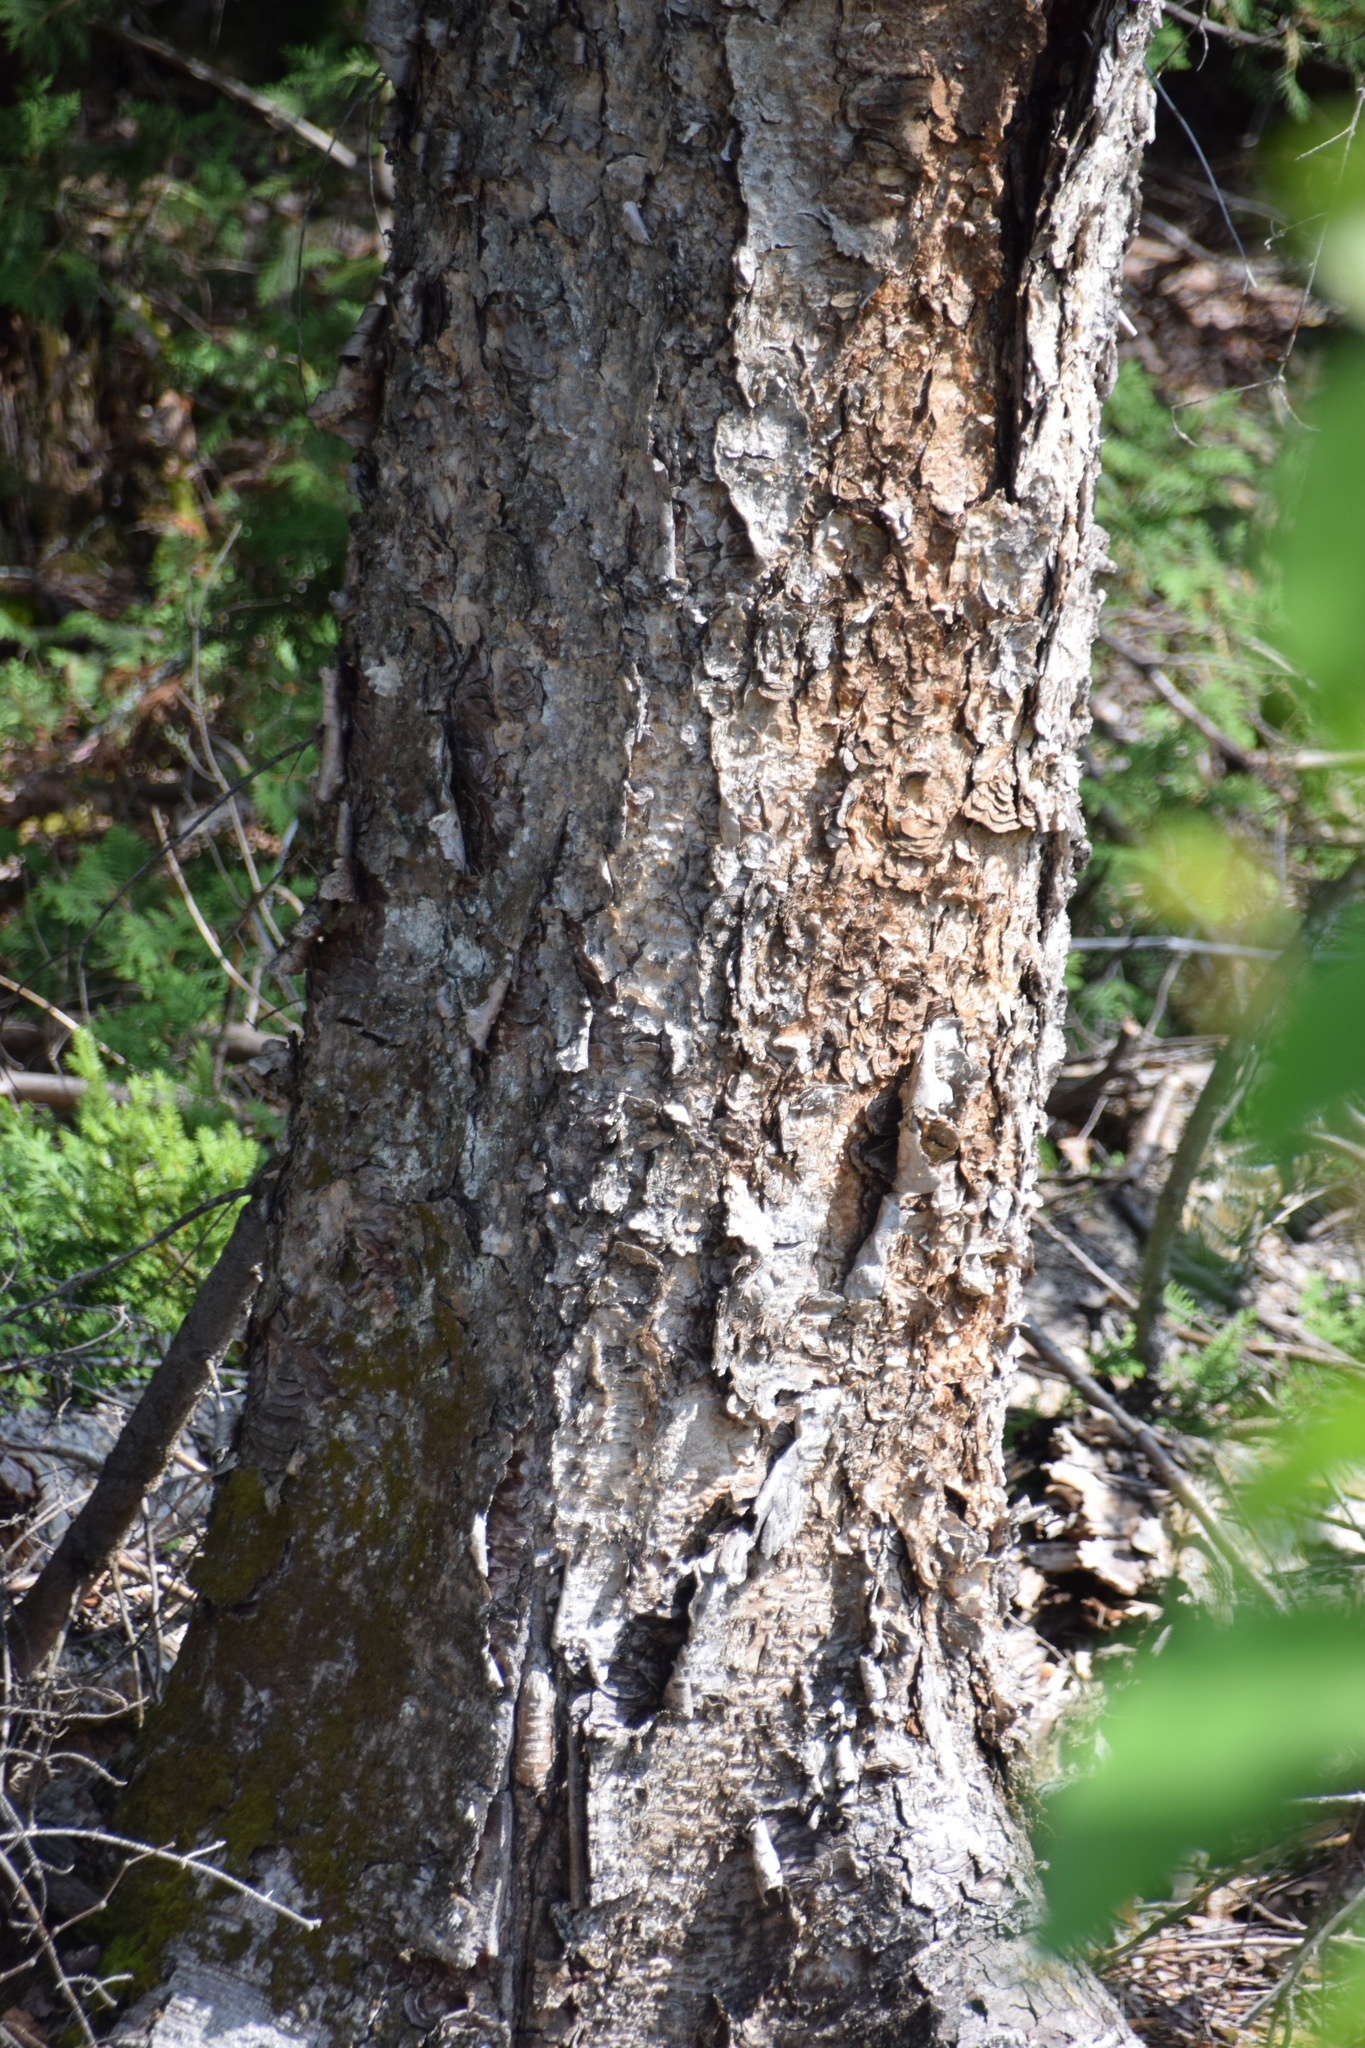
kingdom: Plantae
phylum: Tracheophyta
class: Magnoliopsida
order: Fagales
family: Betulaceae
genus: Betula
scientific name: Betula alleghaniensis
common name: Yellow birch
